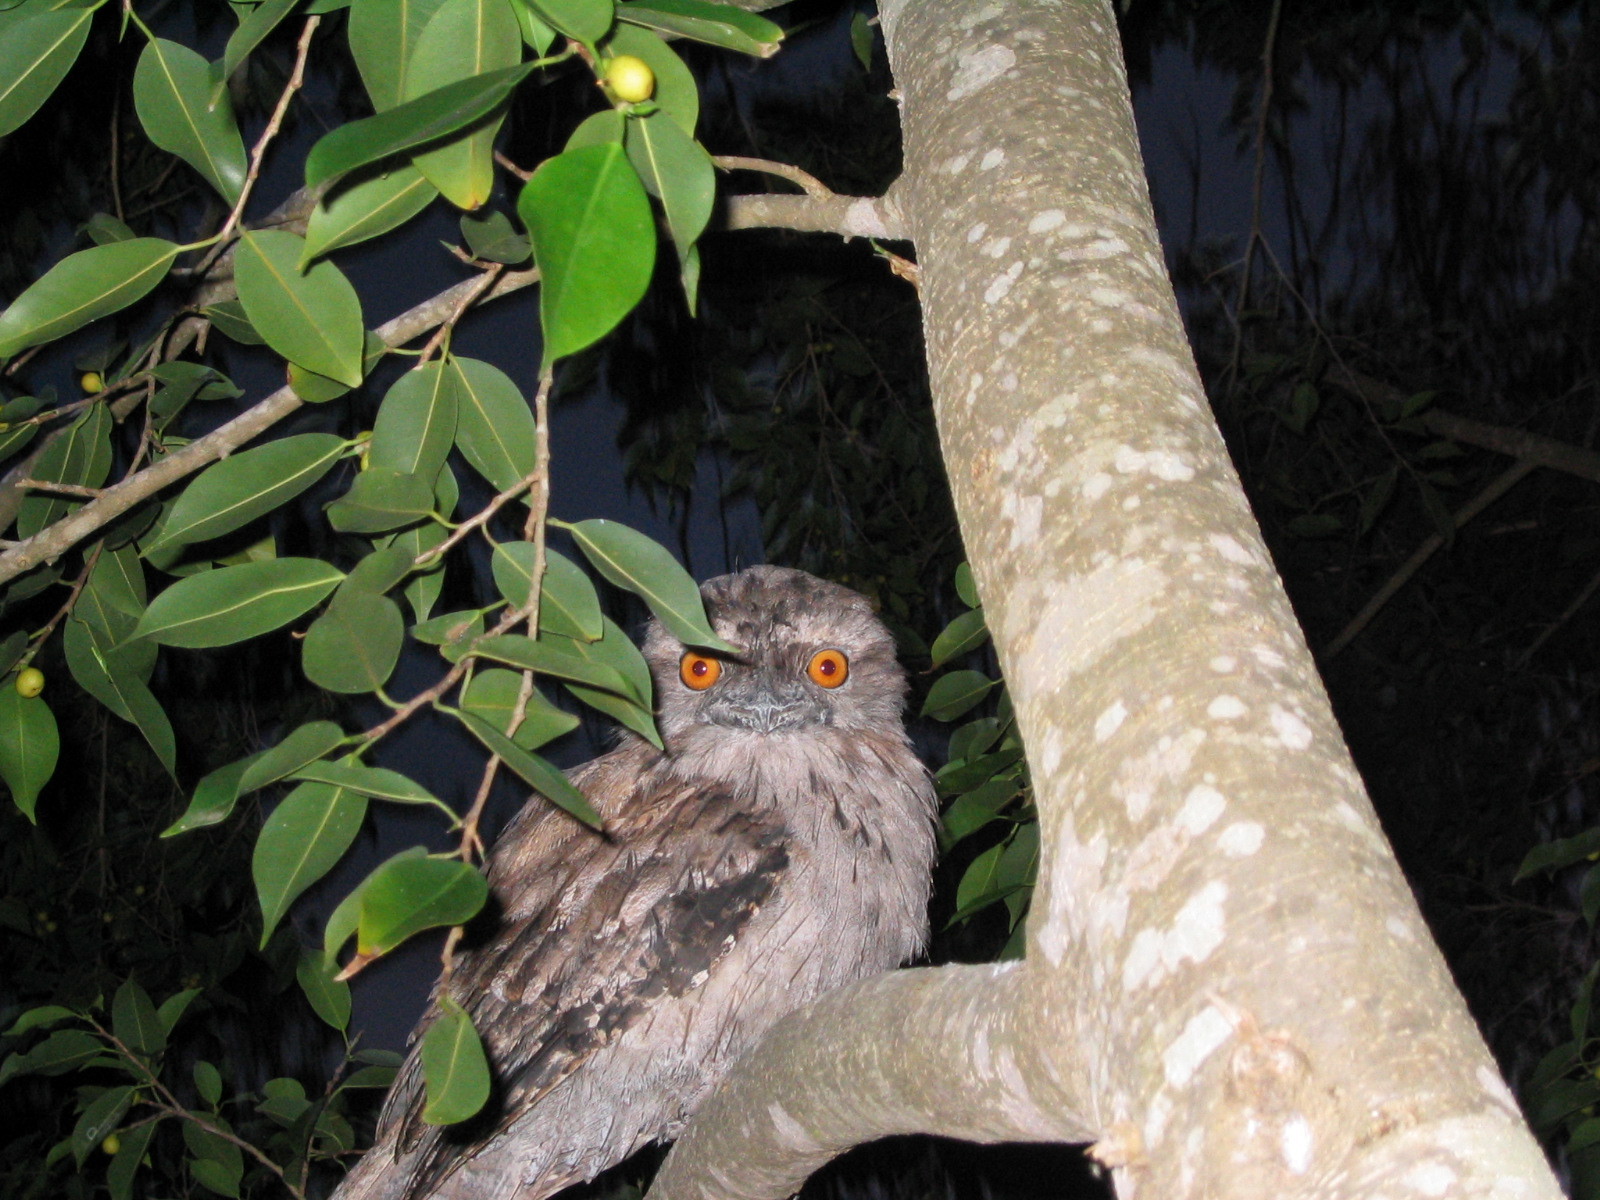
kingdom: Animalia
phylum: Chordata
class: Aves
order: Caprimulgiformes
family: Podargidae
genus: Podargus
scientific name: Podargus strigoides
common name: Tawny frogmouth
